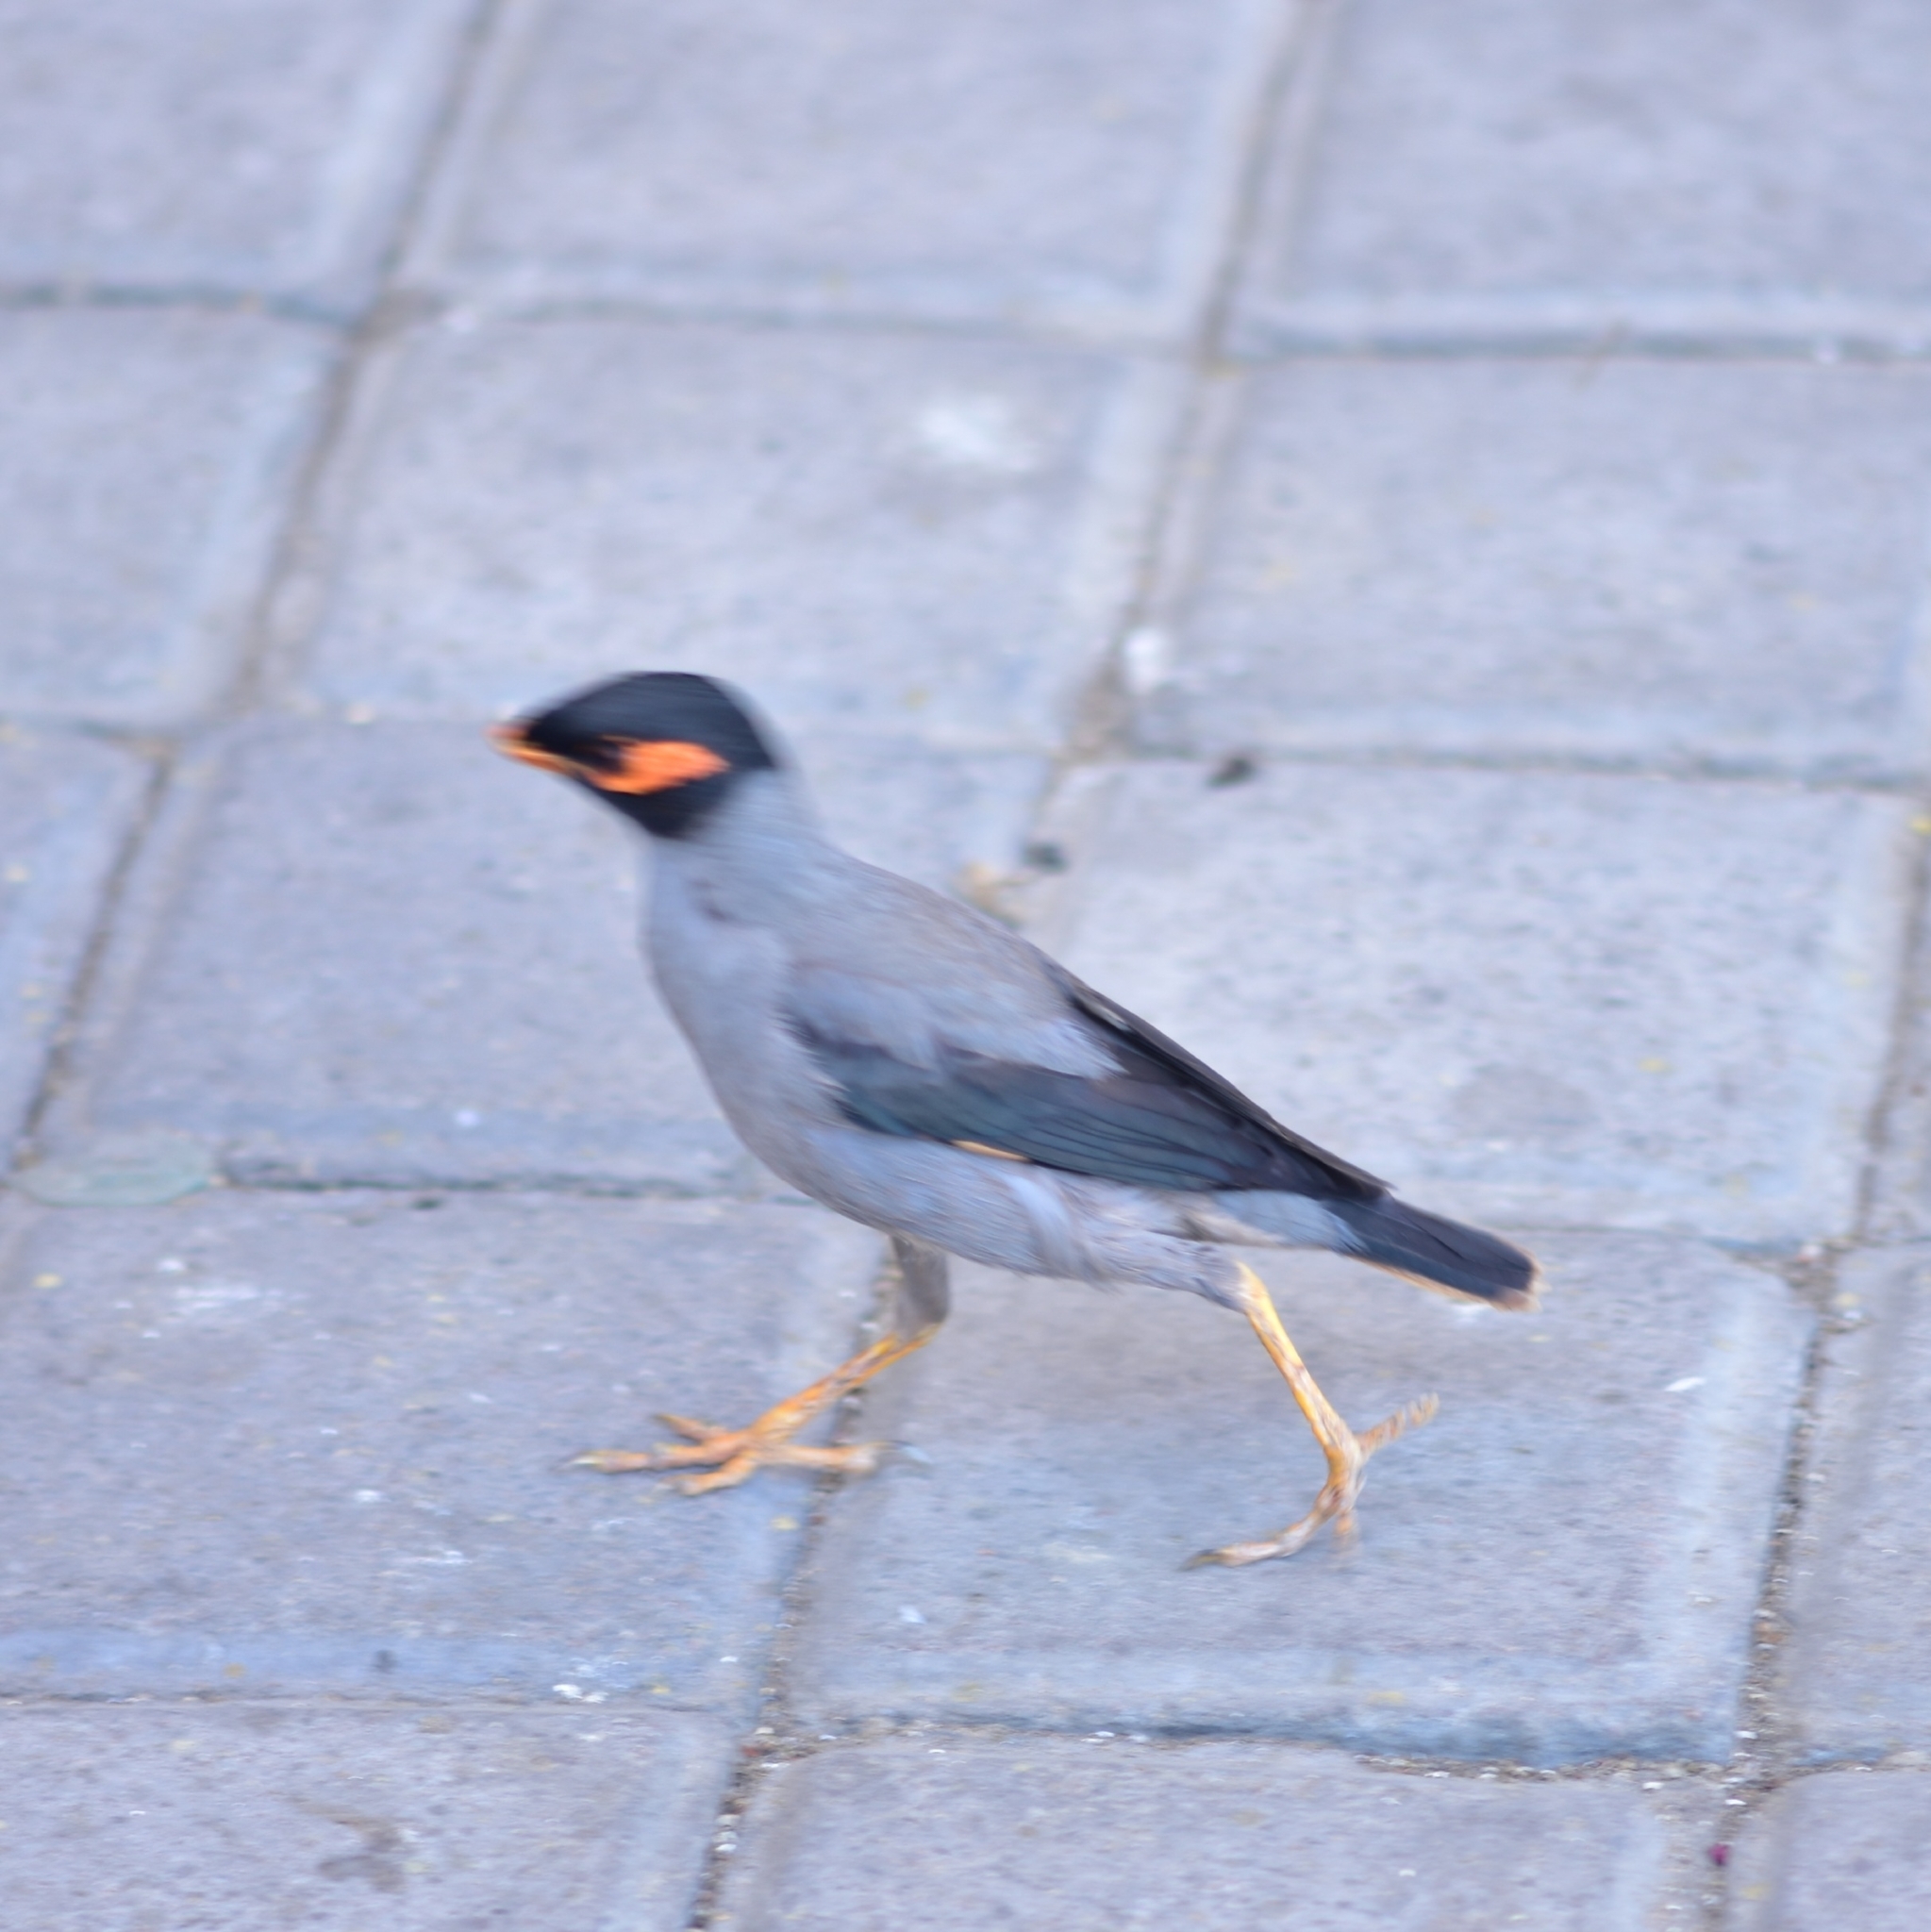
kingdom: Animalia
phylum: Chordata
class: Aves
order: Passeriformes
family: Sturnidae
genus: Acridotheres
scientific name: Acridotheres ginginianus
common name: Bank myna
